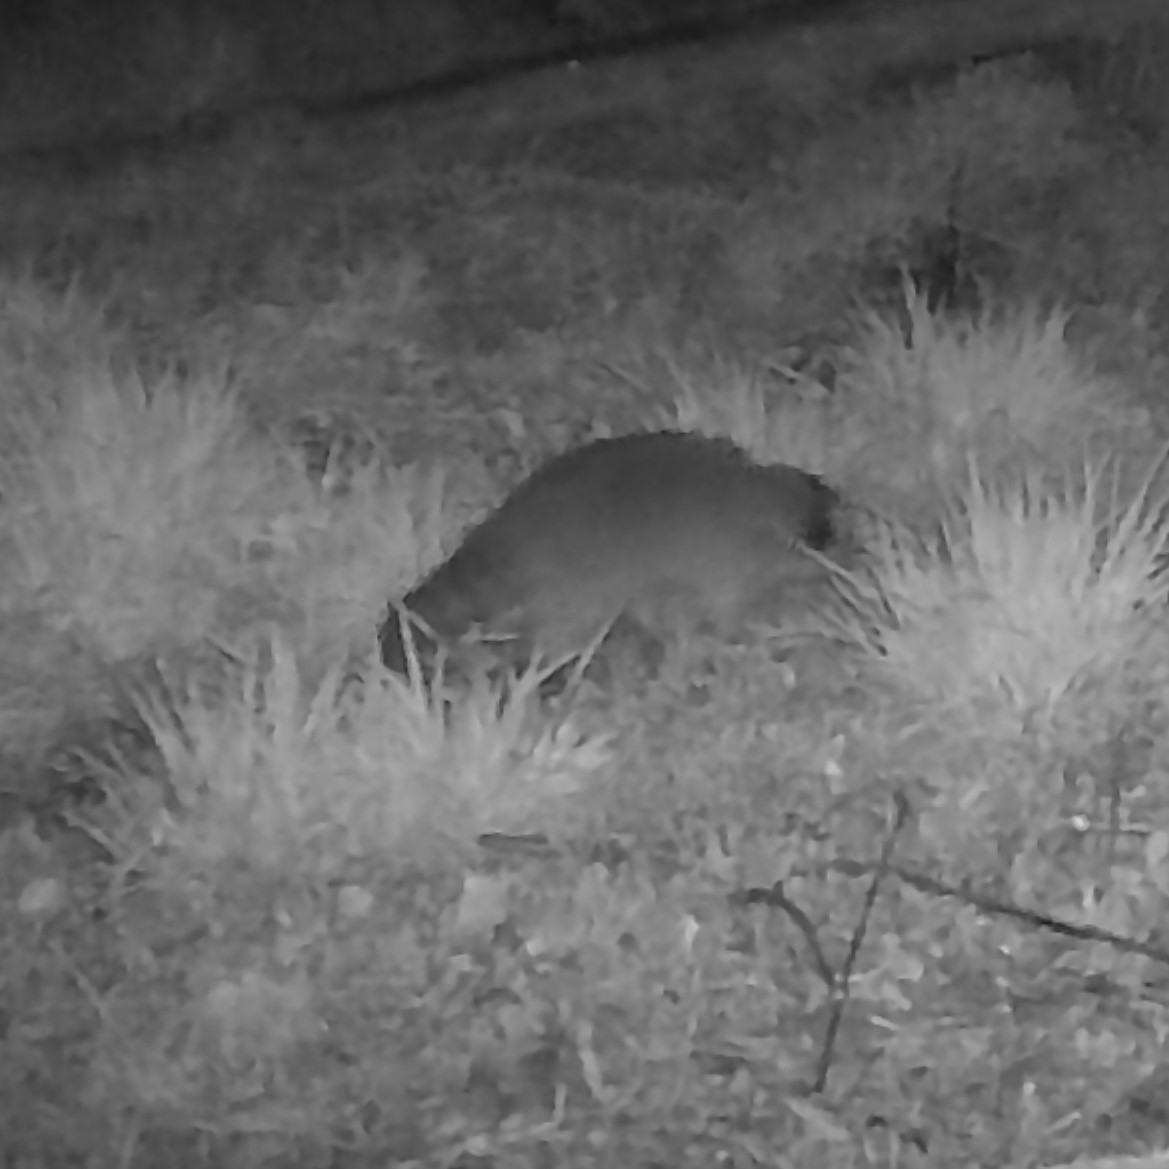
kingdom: Animalia
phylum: Chordata
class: Mammalia
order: Carnivora
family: Procyonidae
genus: Procyon
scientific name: Procyon lotor
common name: Raccoon
